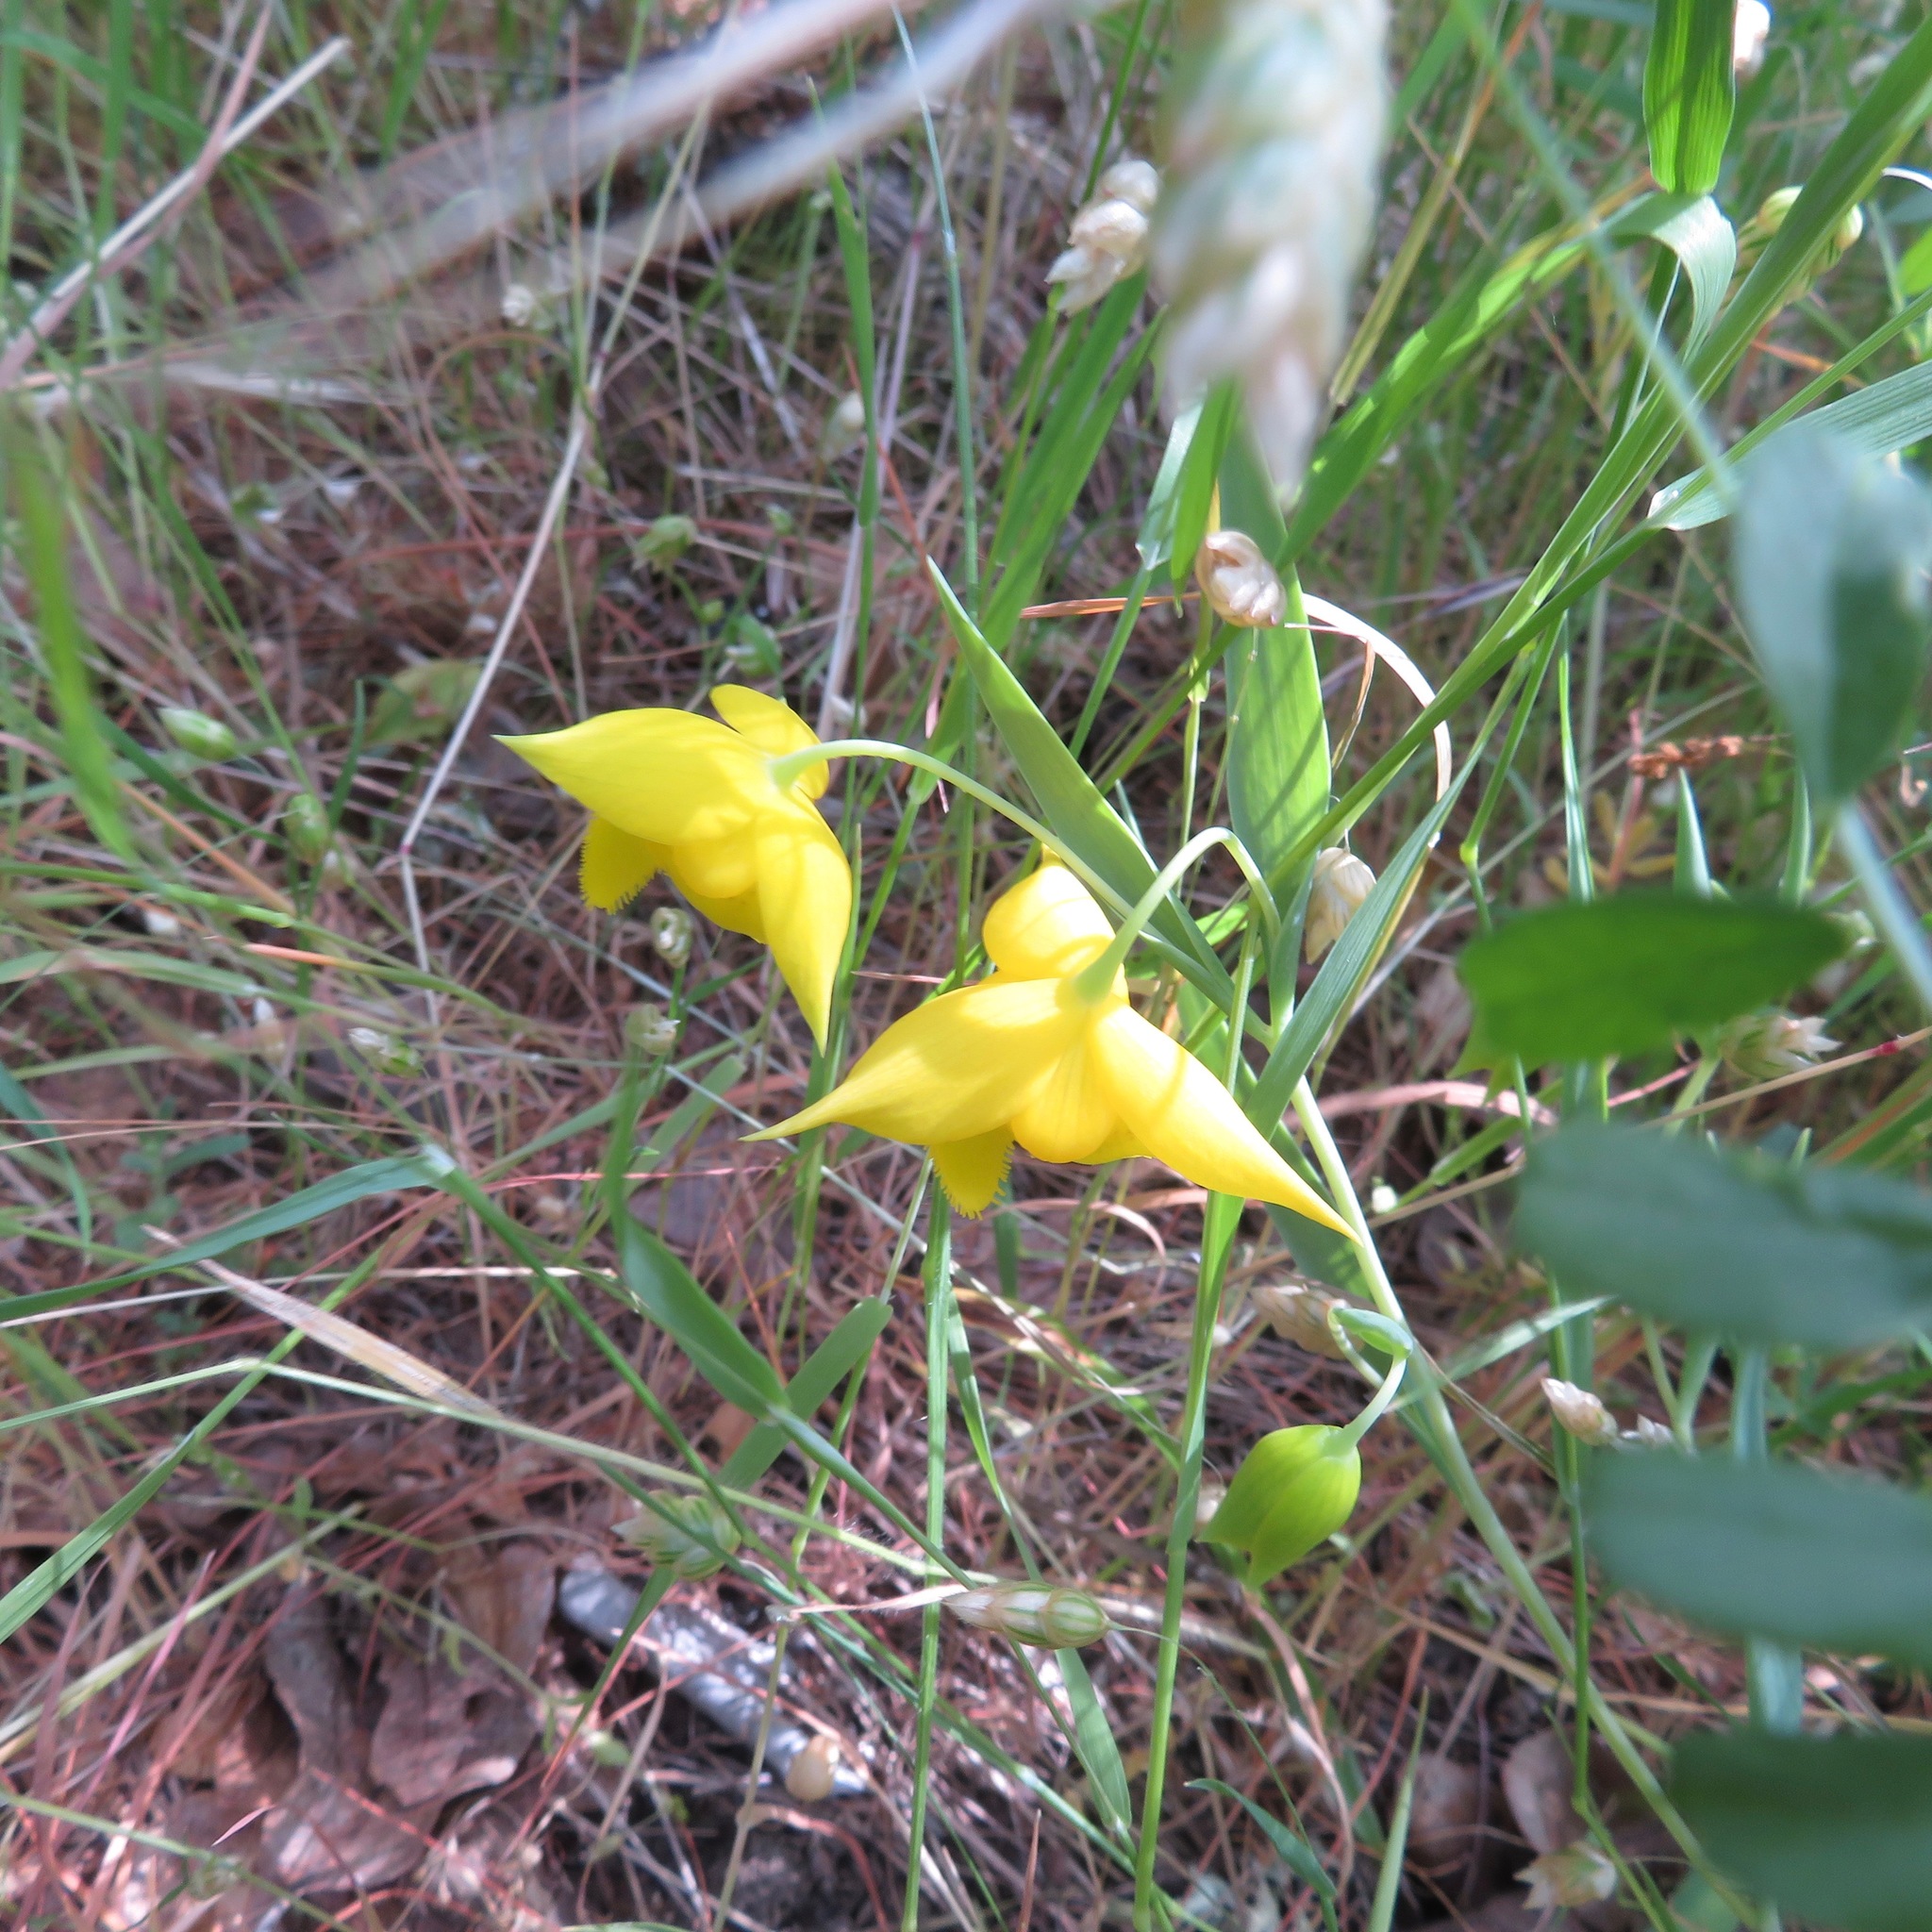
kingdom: Plantae
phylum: Tracheophyta
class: Liliopsida
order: Liliales
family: Liliaceae
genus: Calochortus
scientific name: Calochortus amabilis
